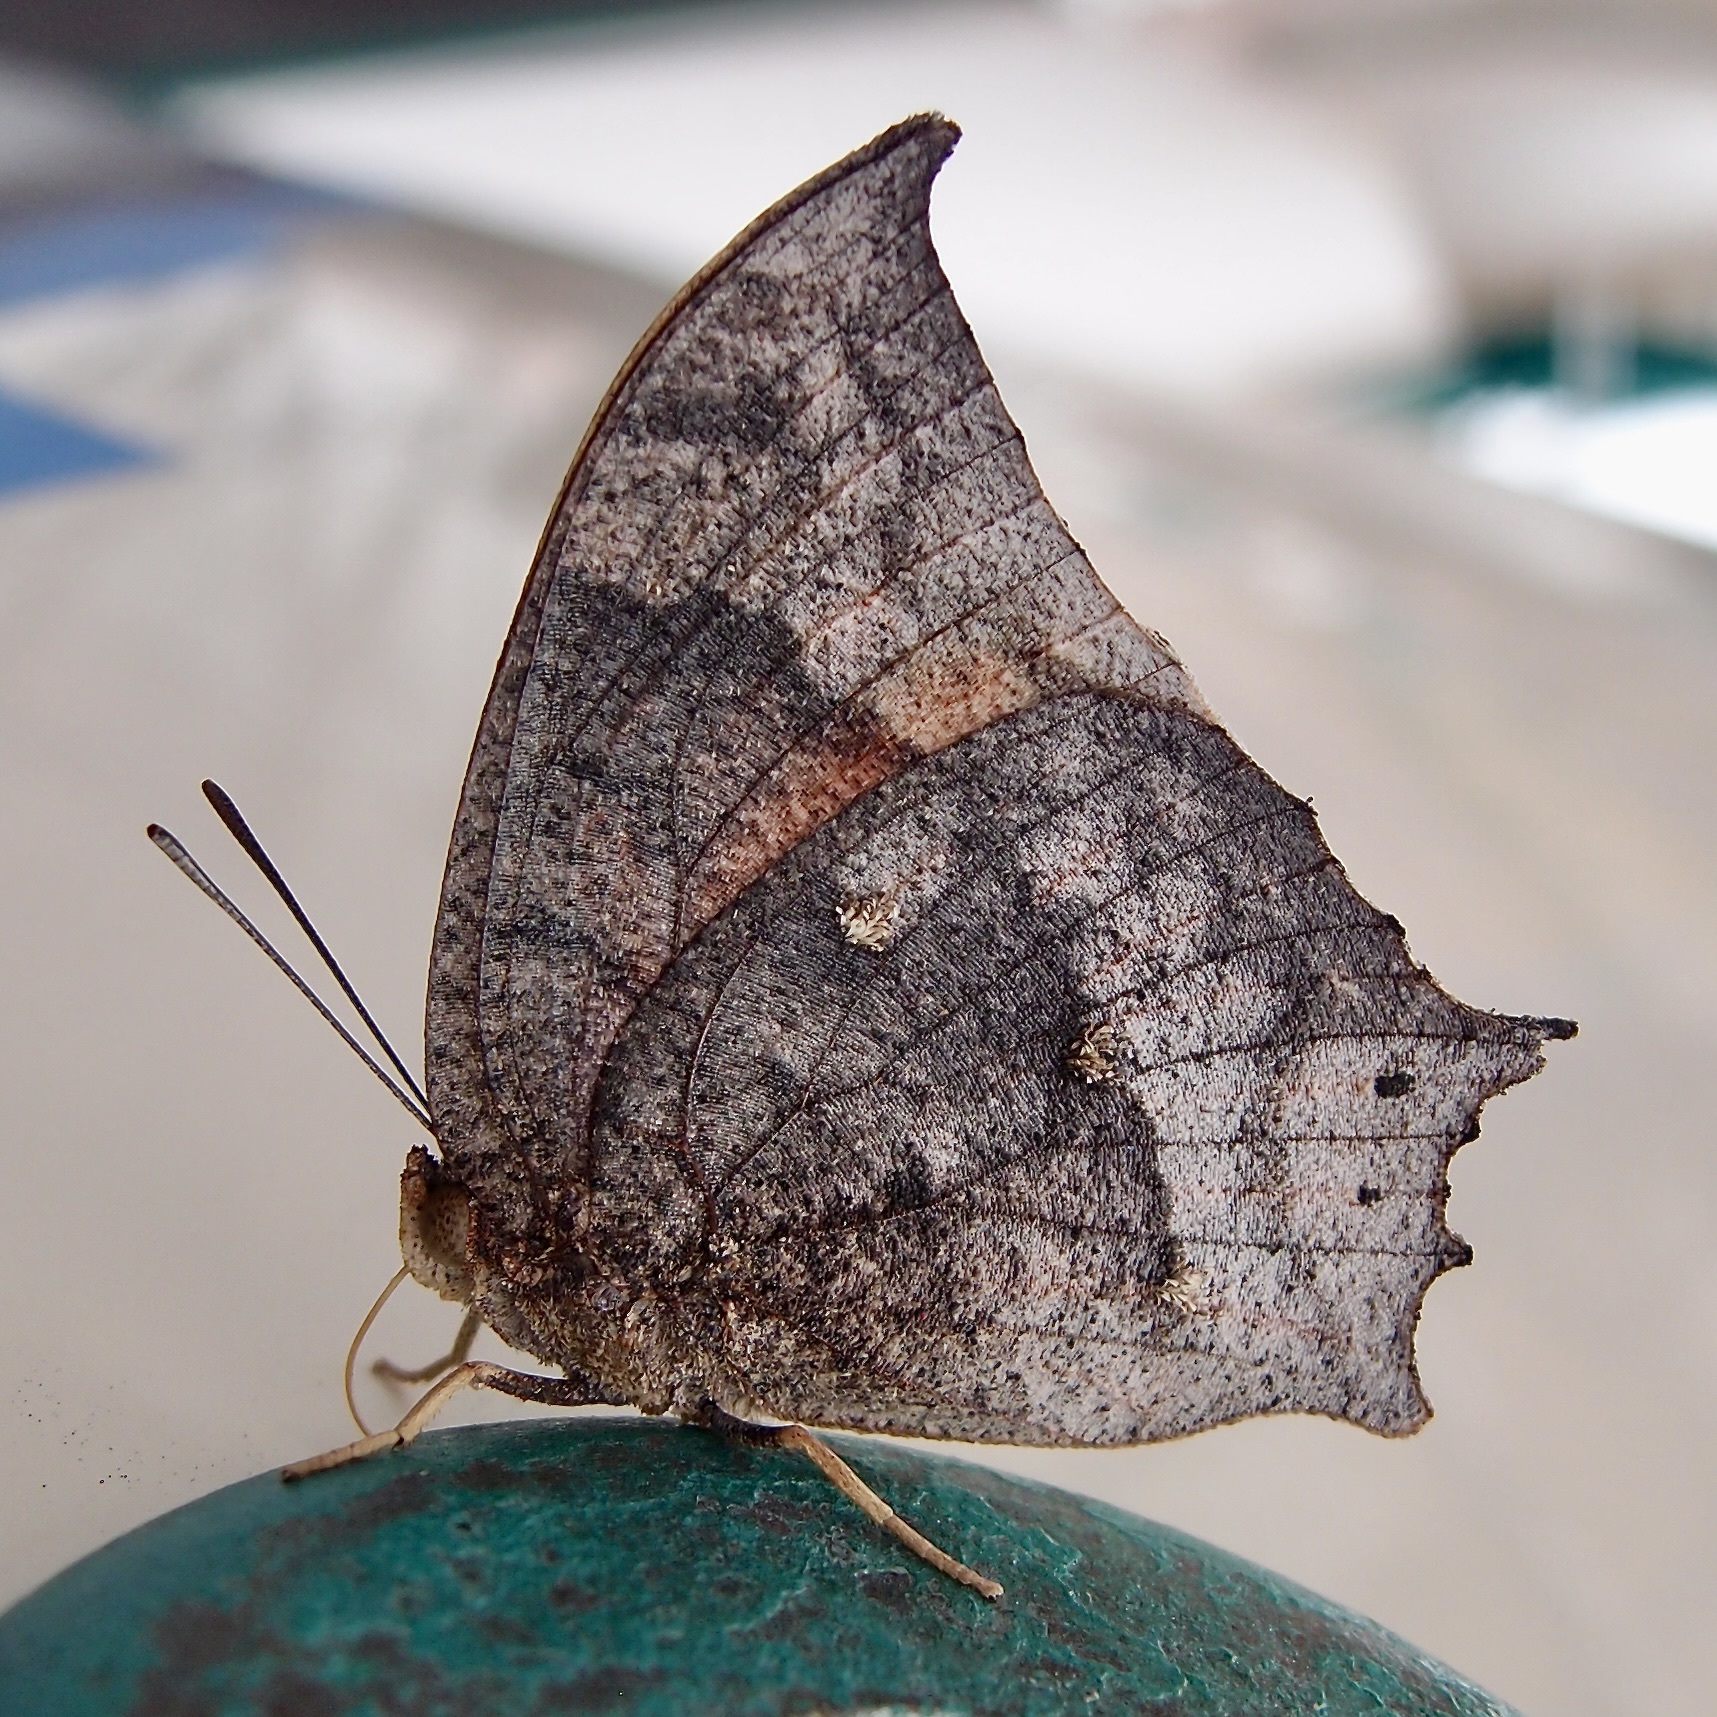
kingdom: Animalia
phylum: Arthropoda
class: Insecta
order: Lepidoptera
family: Nymphalidae
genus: Anaea
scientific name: Anaea aidea
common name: Tropical leafwing
